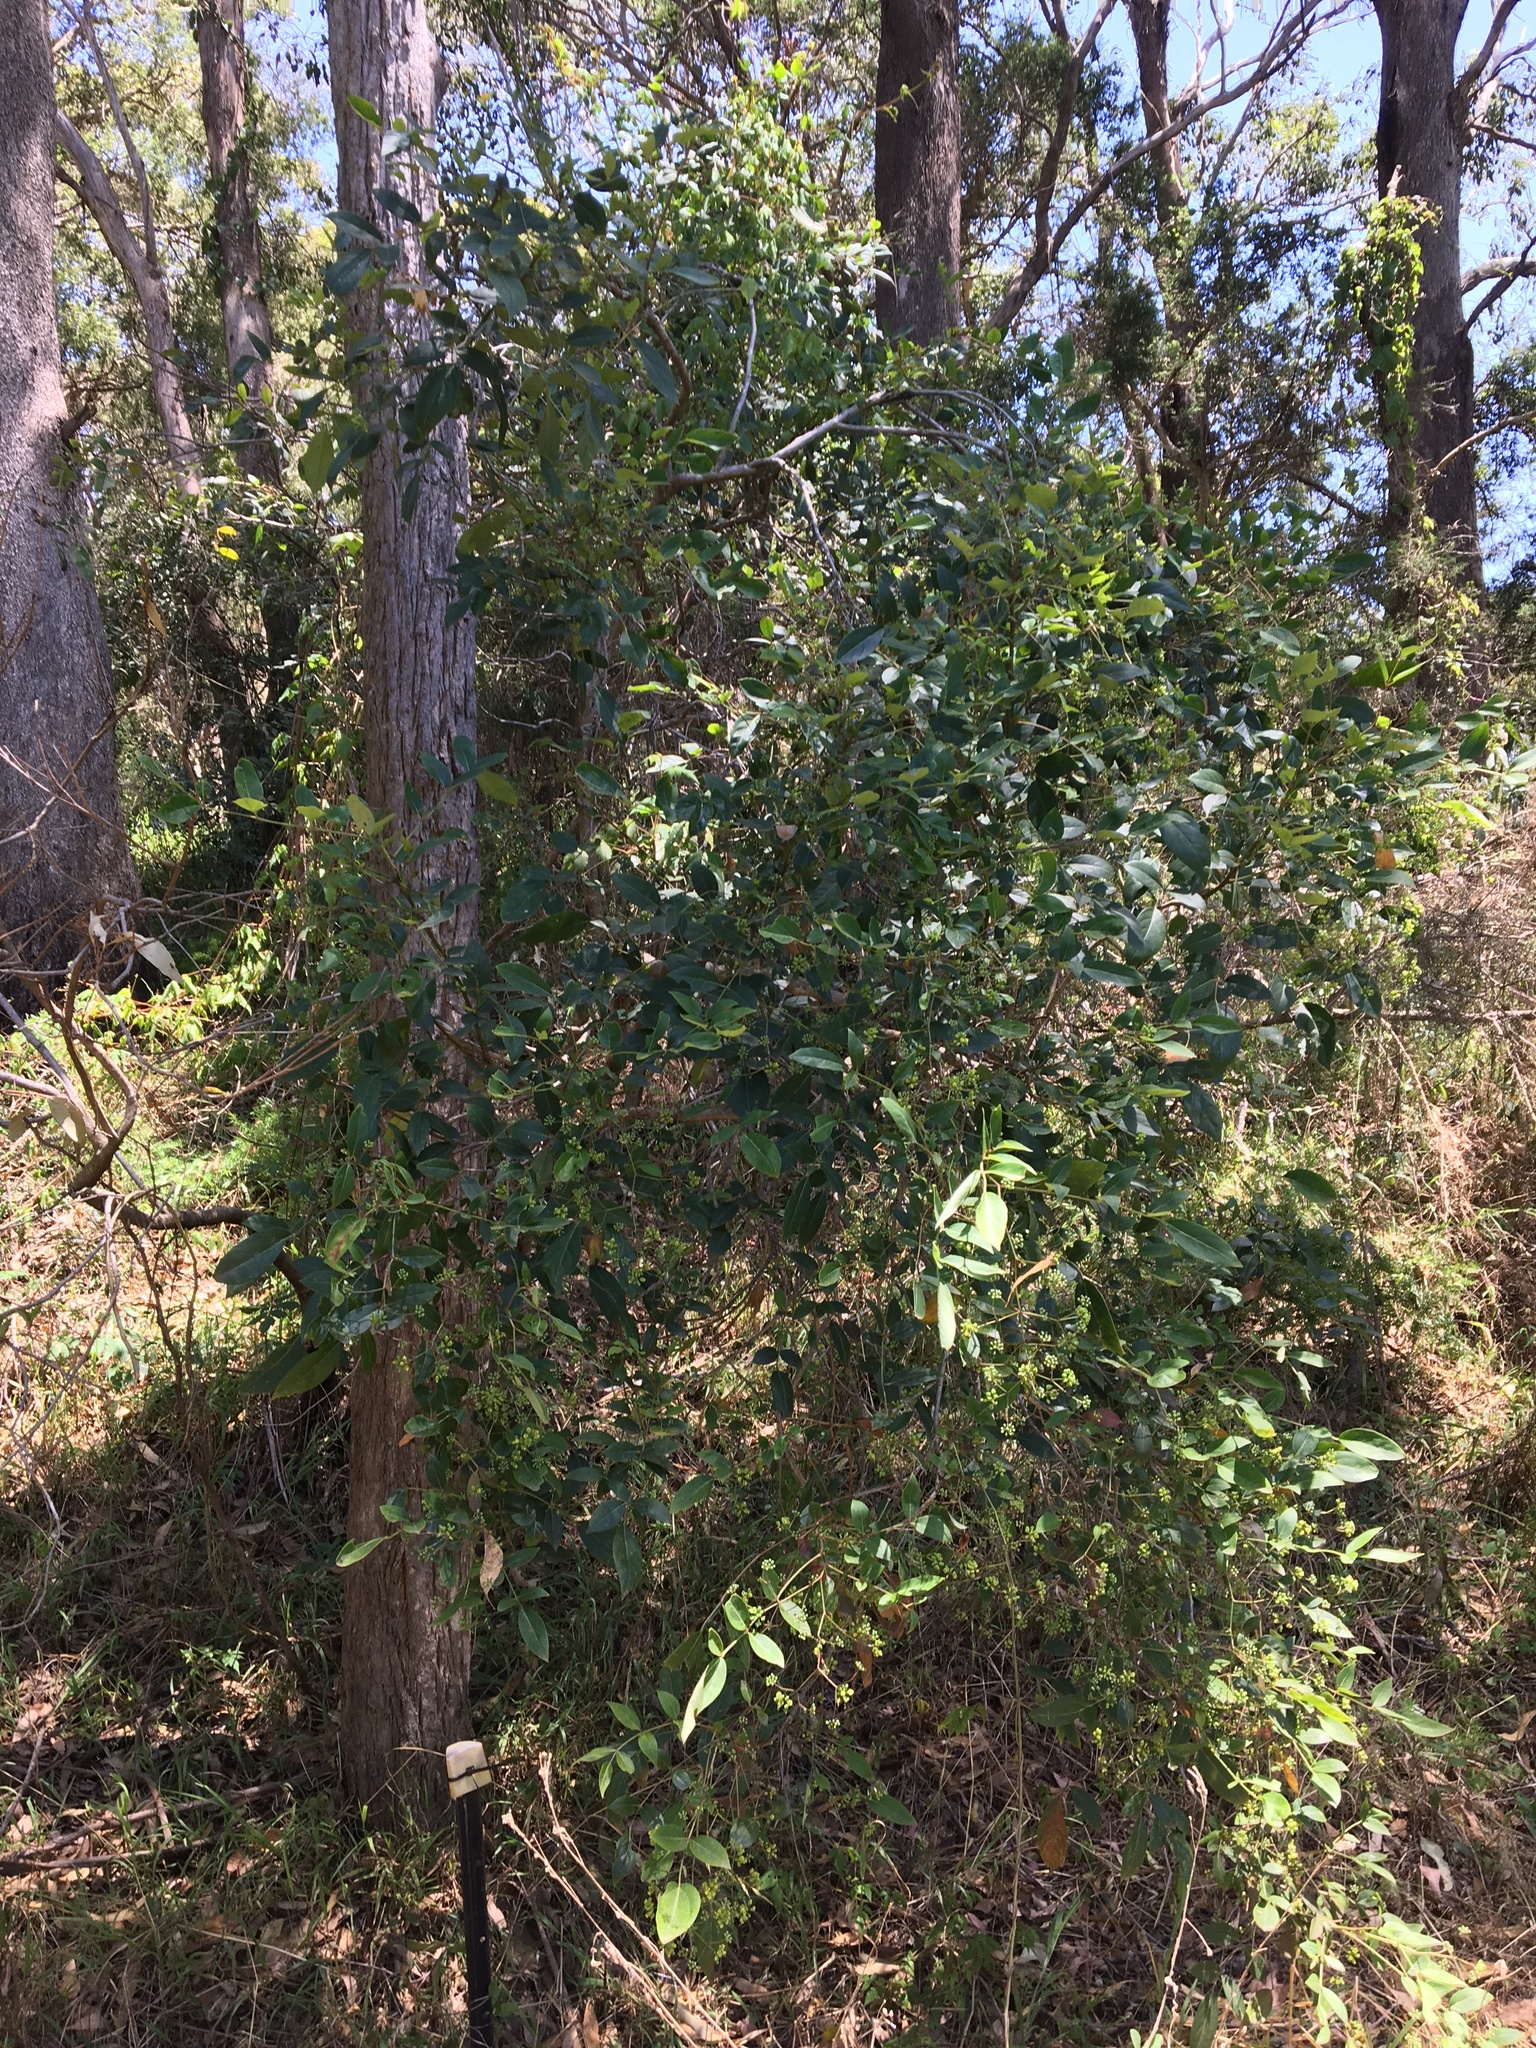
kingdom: Plantae
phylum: Tracheophyta
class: Magnoliopsida
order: Apiales
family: Araliaceae
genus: Polyscias
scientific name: Polyscias sambucifolia
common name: Elderberry-ash
